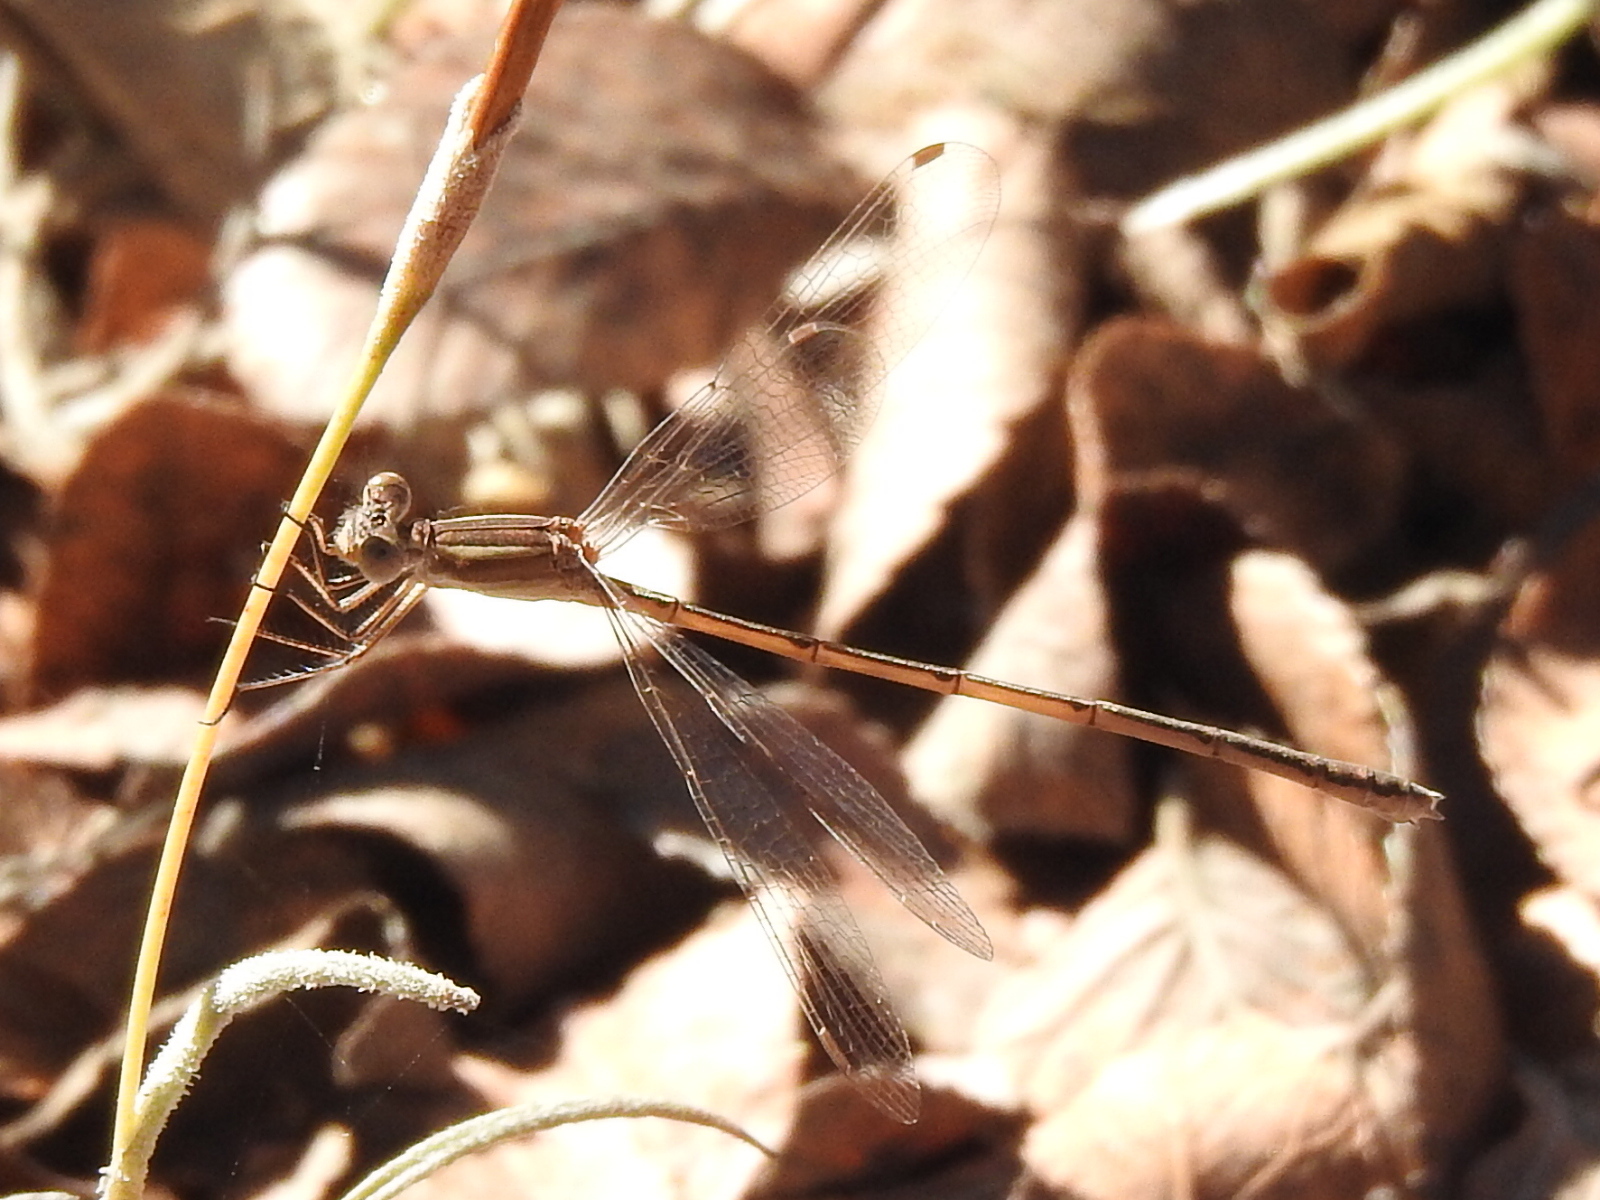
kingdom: Animalia
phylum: Arthropoda
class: Insecta
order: Odonata
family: Lestidae
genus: Lestes
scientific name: Lestes alacer
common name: Plateau spreadwing
